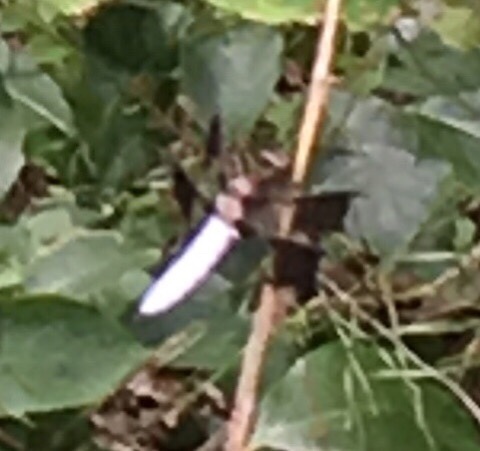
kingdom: Animalia
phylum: Arthropoda
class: Insecta
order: Odonata
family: Libellulidae
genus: Plathemis
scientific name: Plathemis lydia
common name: Common whitetail
